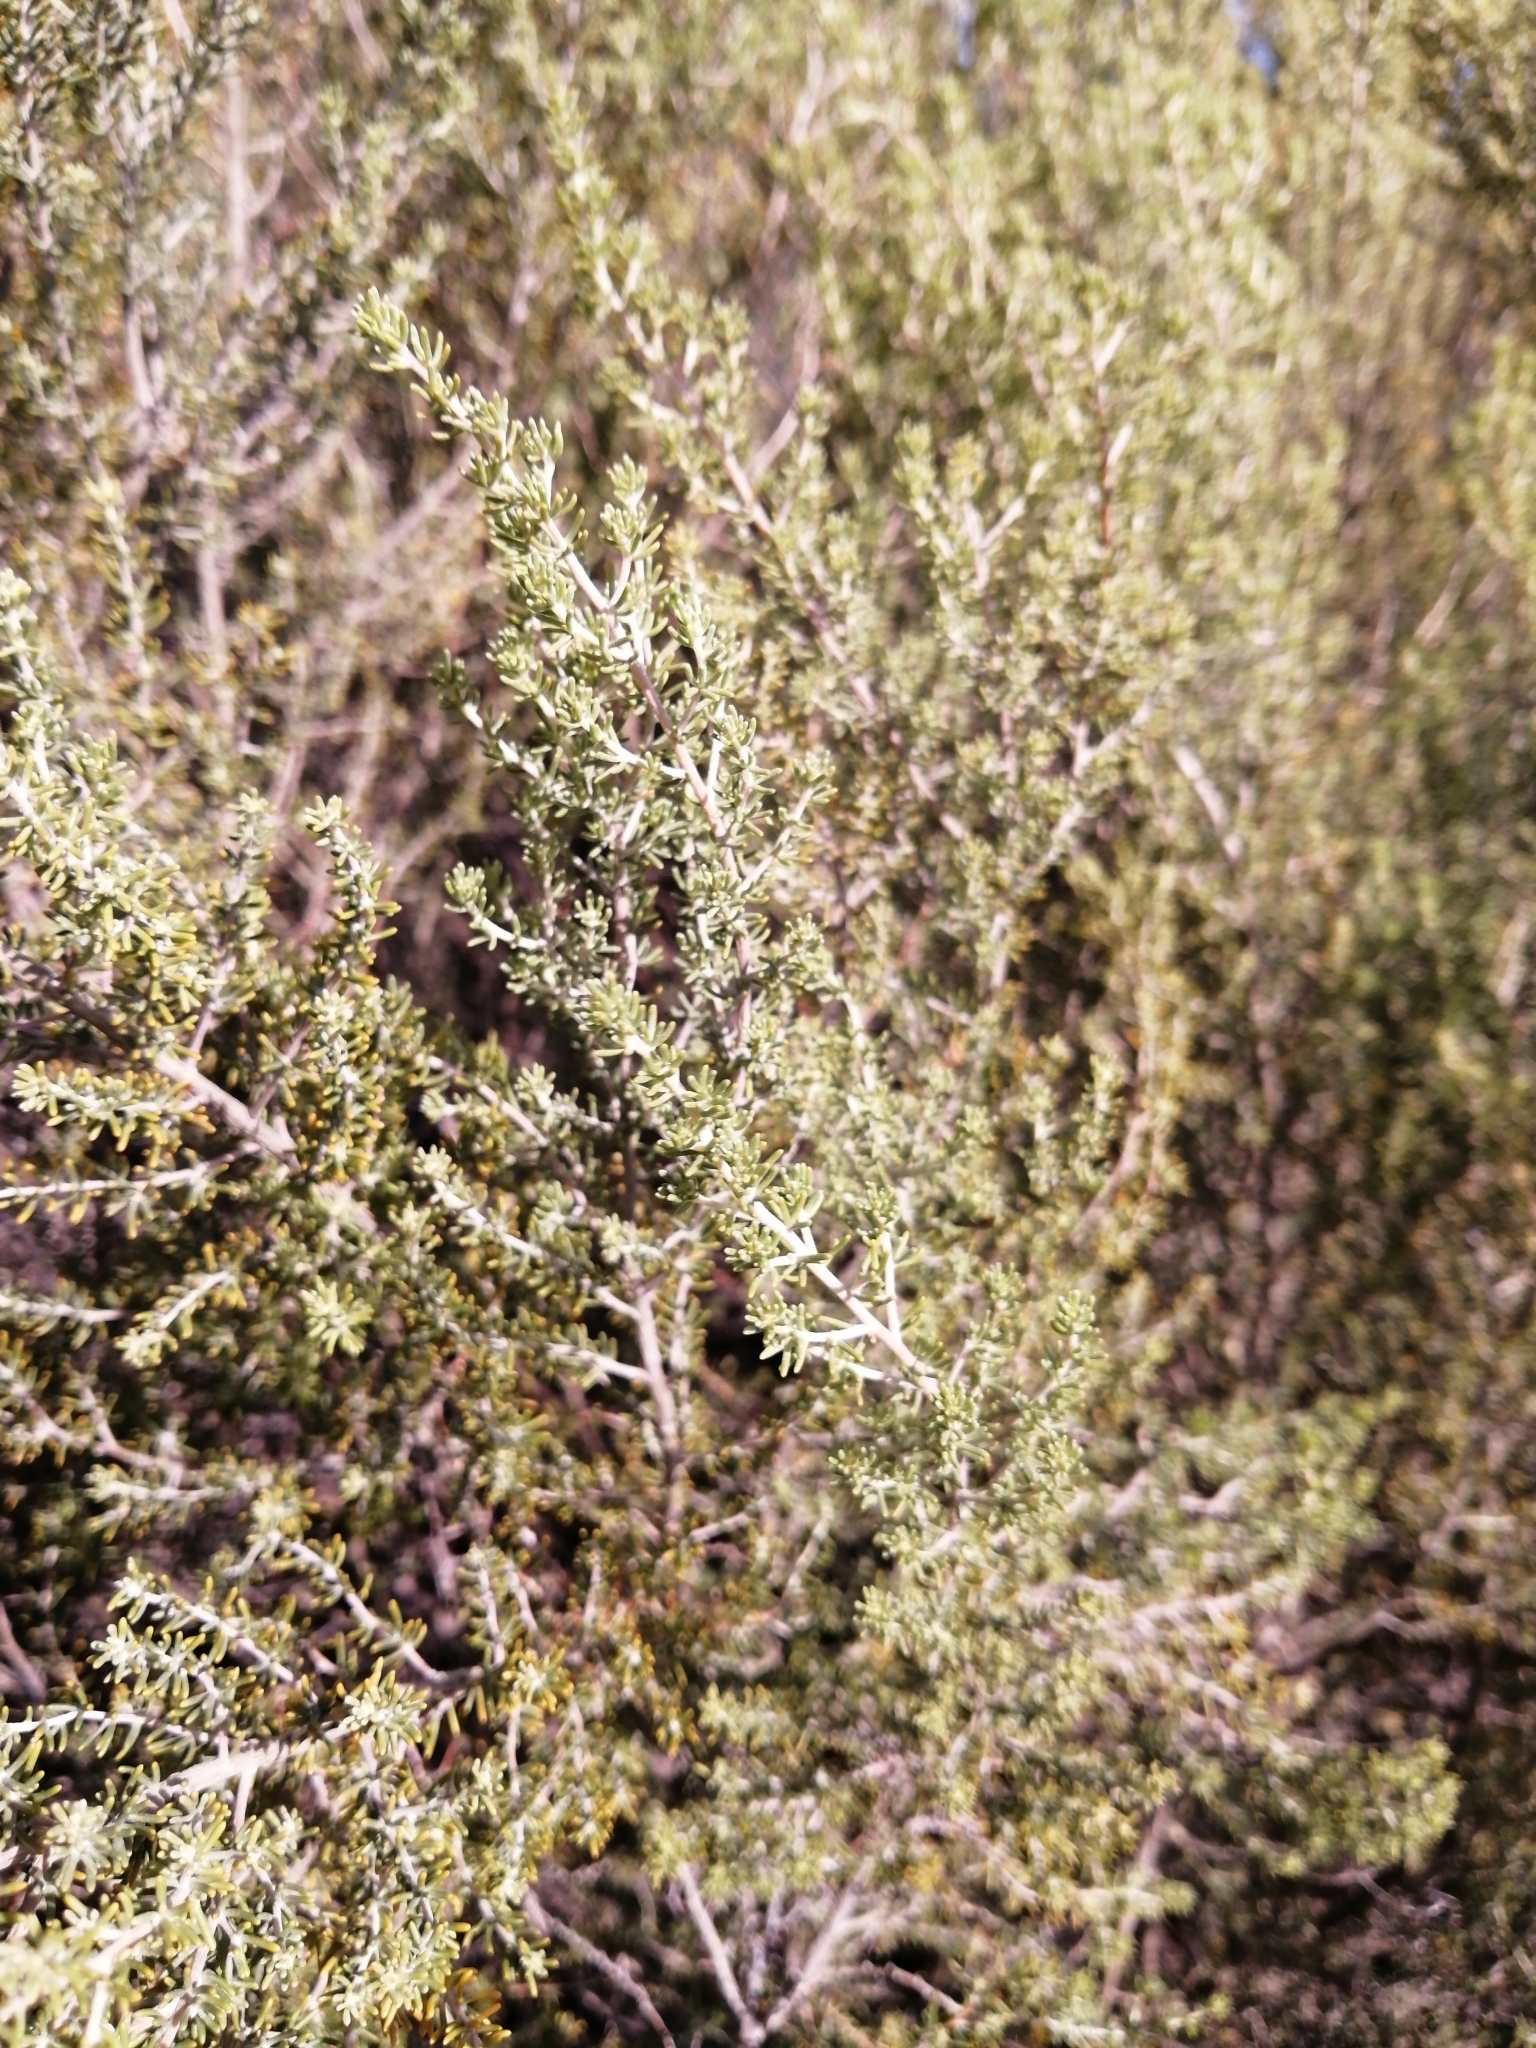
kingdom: Plantae
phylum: Tracheophyta
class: Magnoliopsida
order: Fabales
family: Fabaceae
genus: Aspalathus
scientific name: Aspalathus lactea
